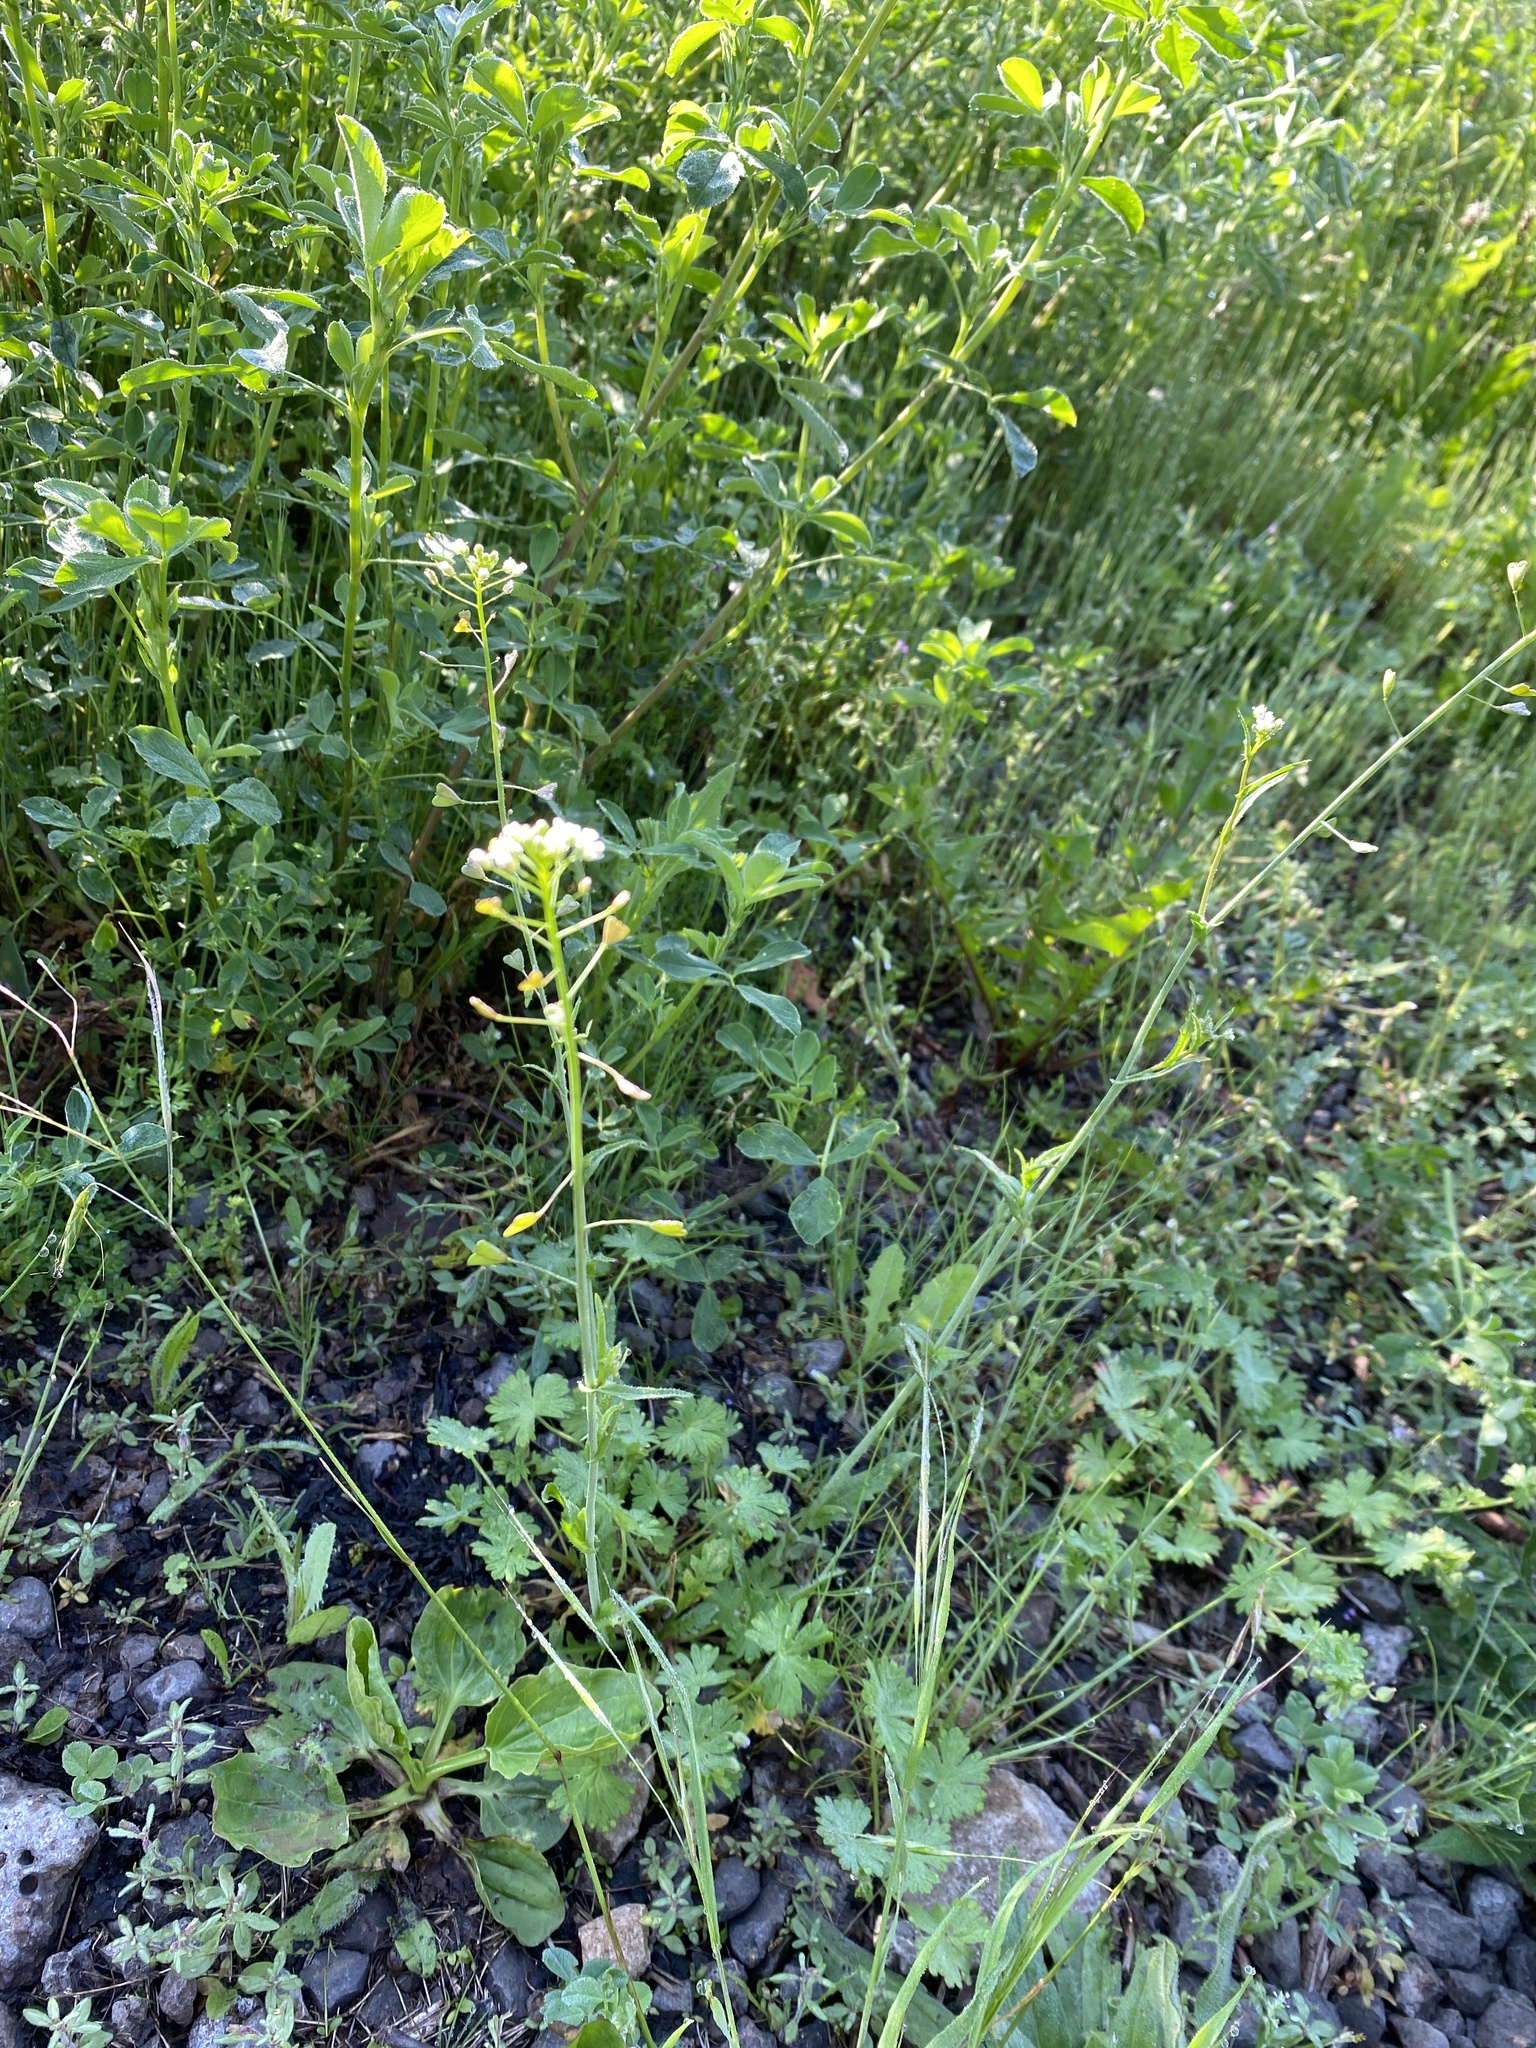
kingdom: Plantae
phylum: Tracheophyta
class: Magnoliopsida
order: Brassicales
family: Brassicaceae
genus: Capsella
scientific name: Capsella bursa-pastoris
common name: Shepherd's purse
